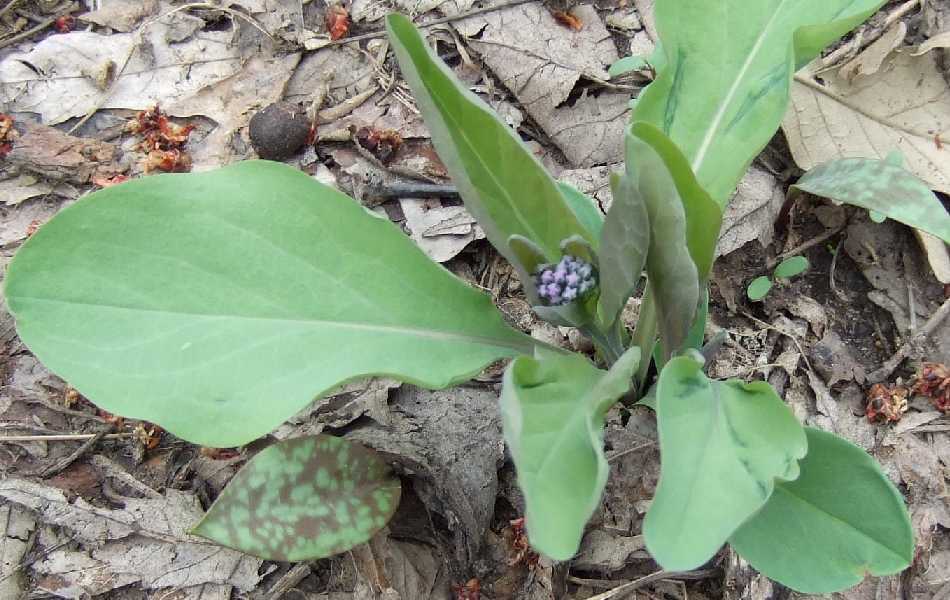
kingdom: Plantae
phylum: Tracheophyta
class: Magnoliopsida
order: Boraginales
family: Boraginaceae
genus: Mertensia
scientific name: Mertensia virginica
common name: Virginia bluebells
